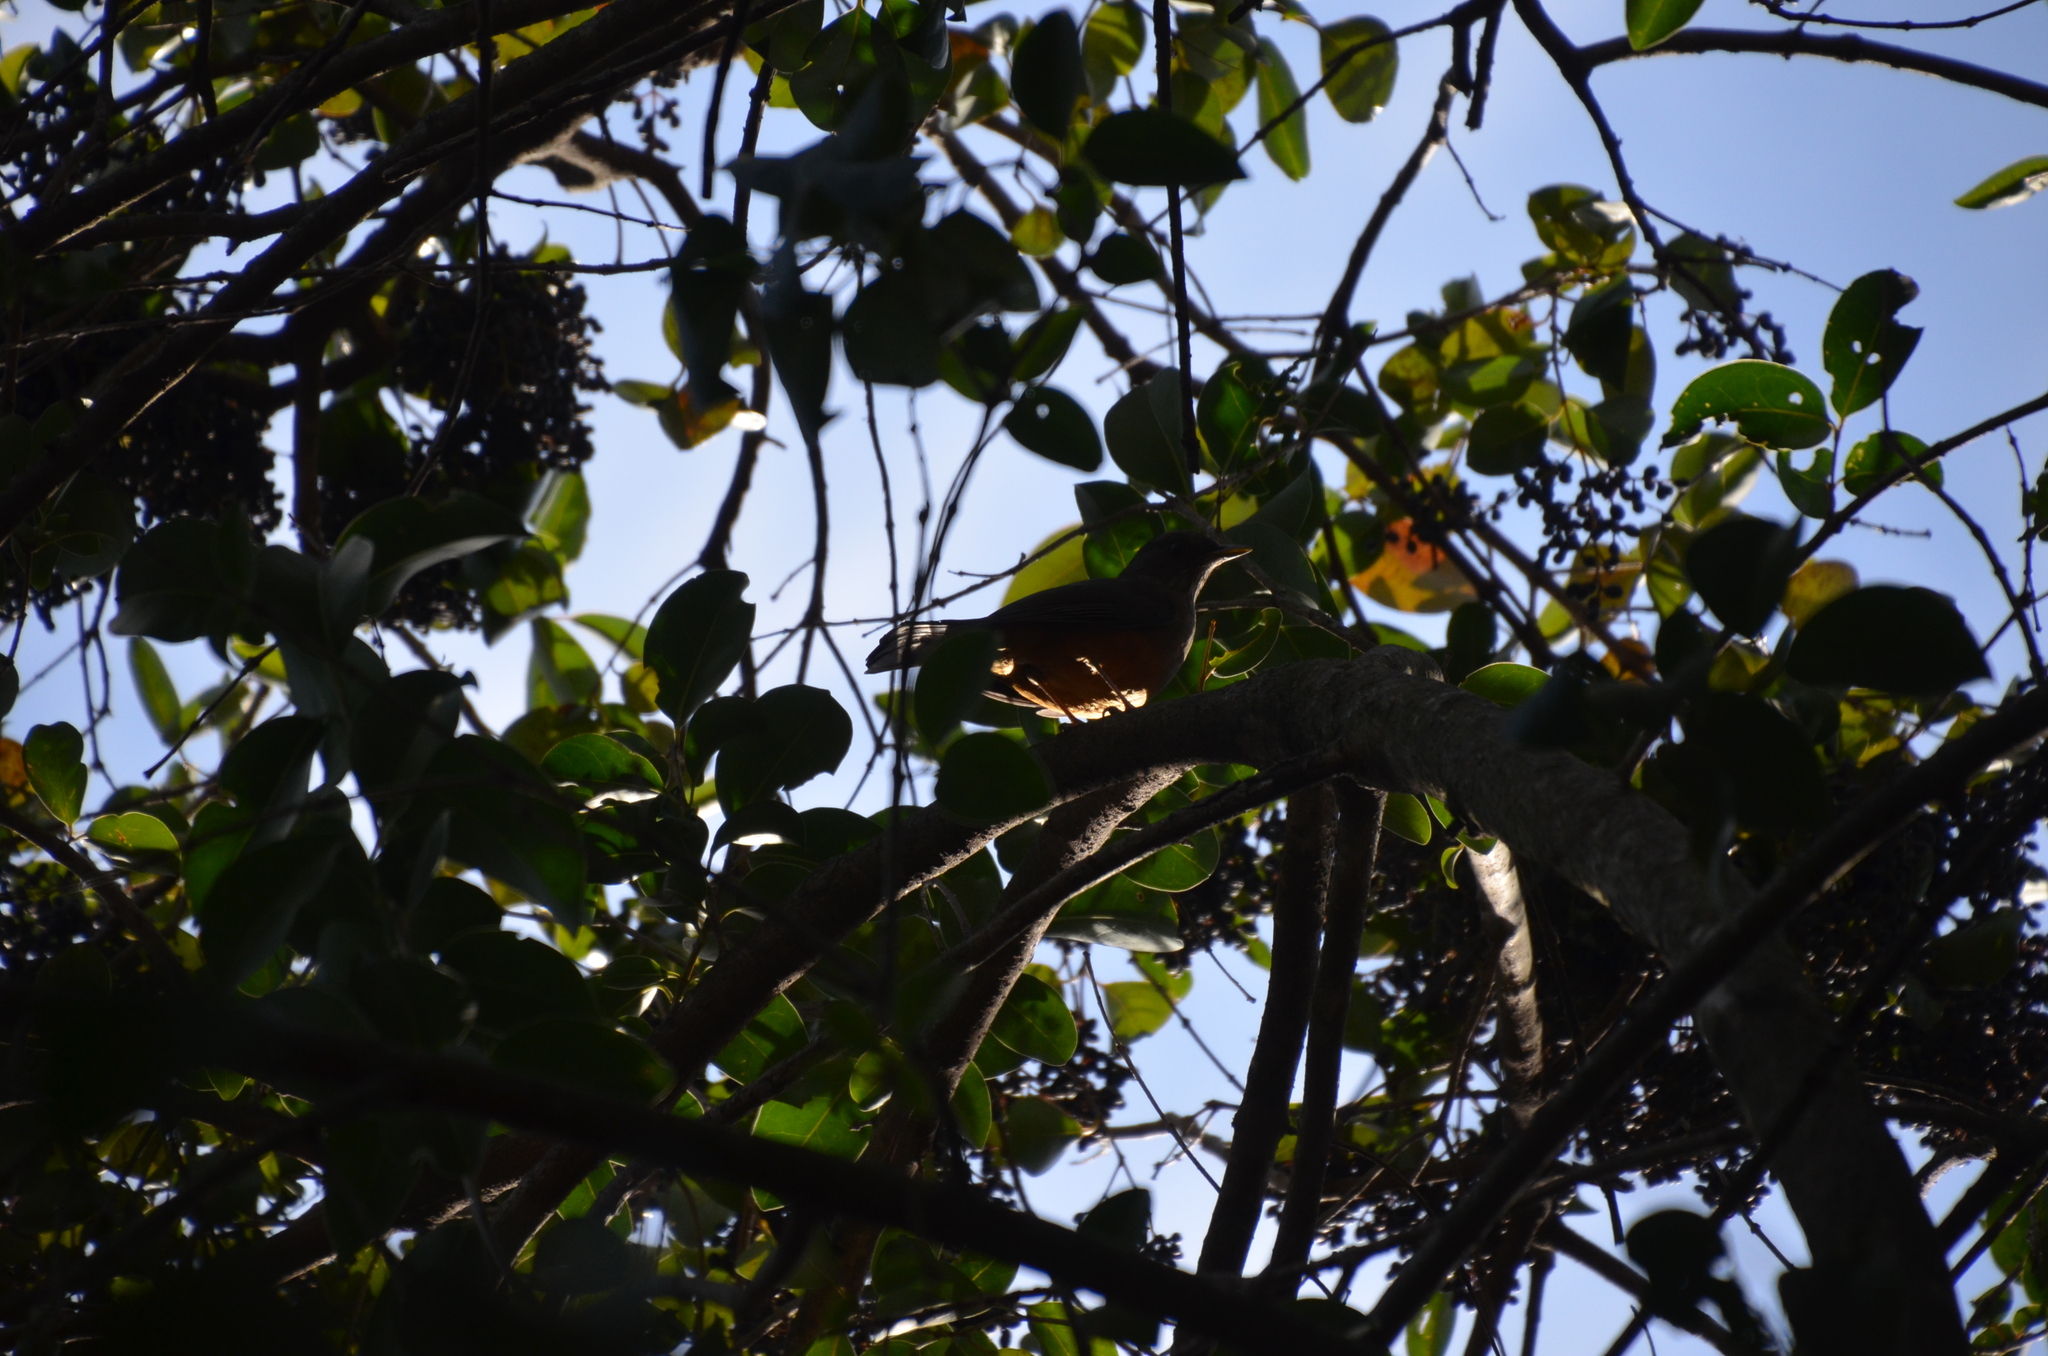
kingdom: Animalia
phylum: Chordata
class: Aves
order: Passeriformes
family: Turdidae
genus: Turdus
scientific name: Turdus rufiventris
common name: Rufous-bellied thrush
